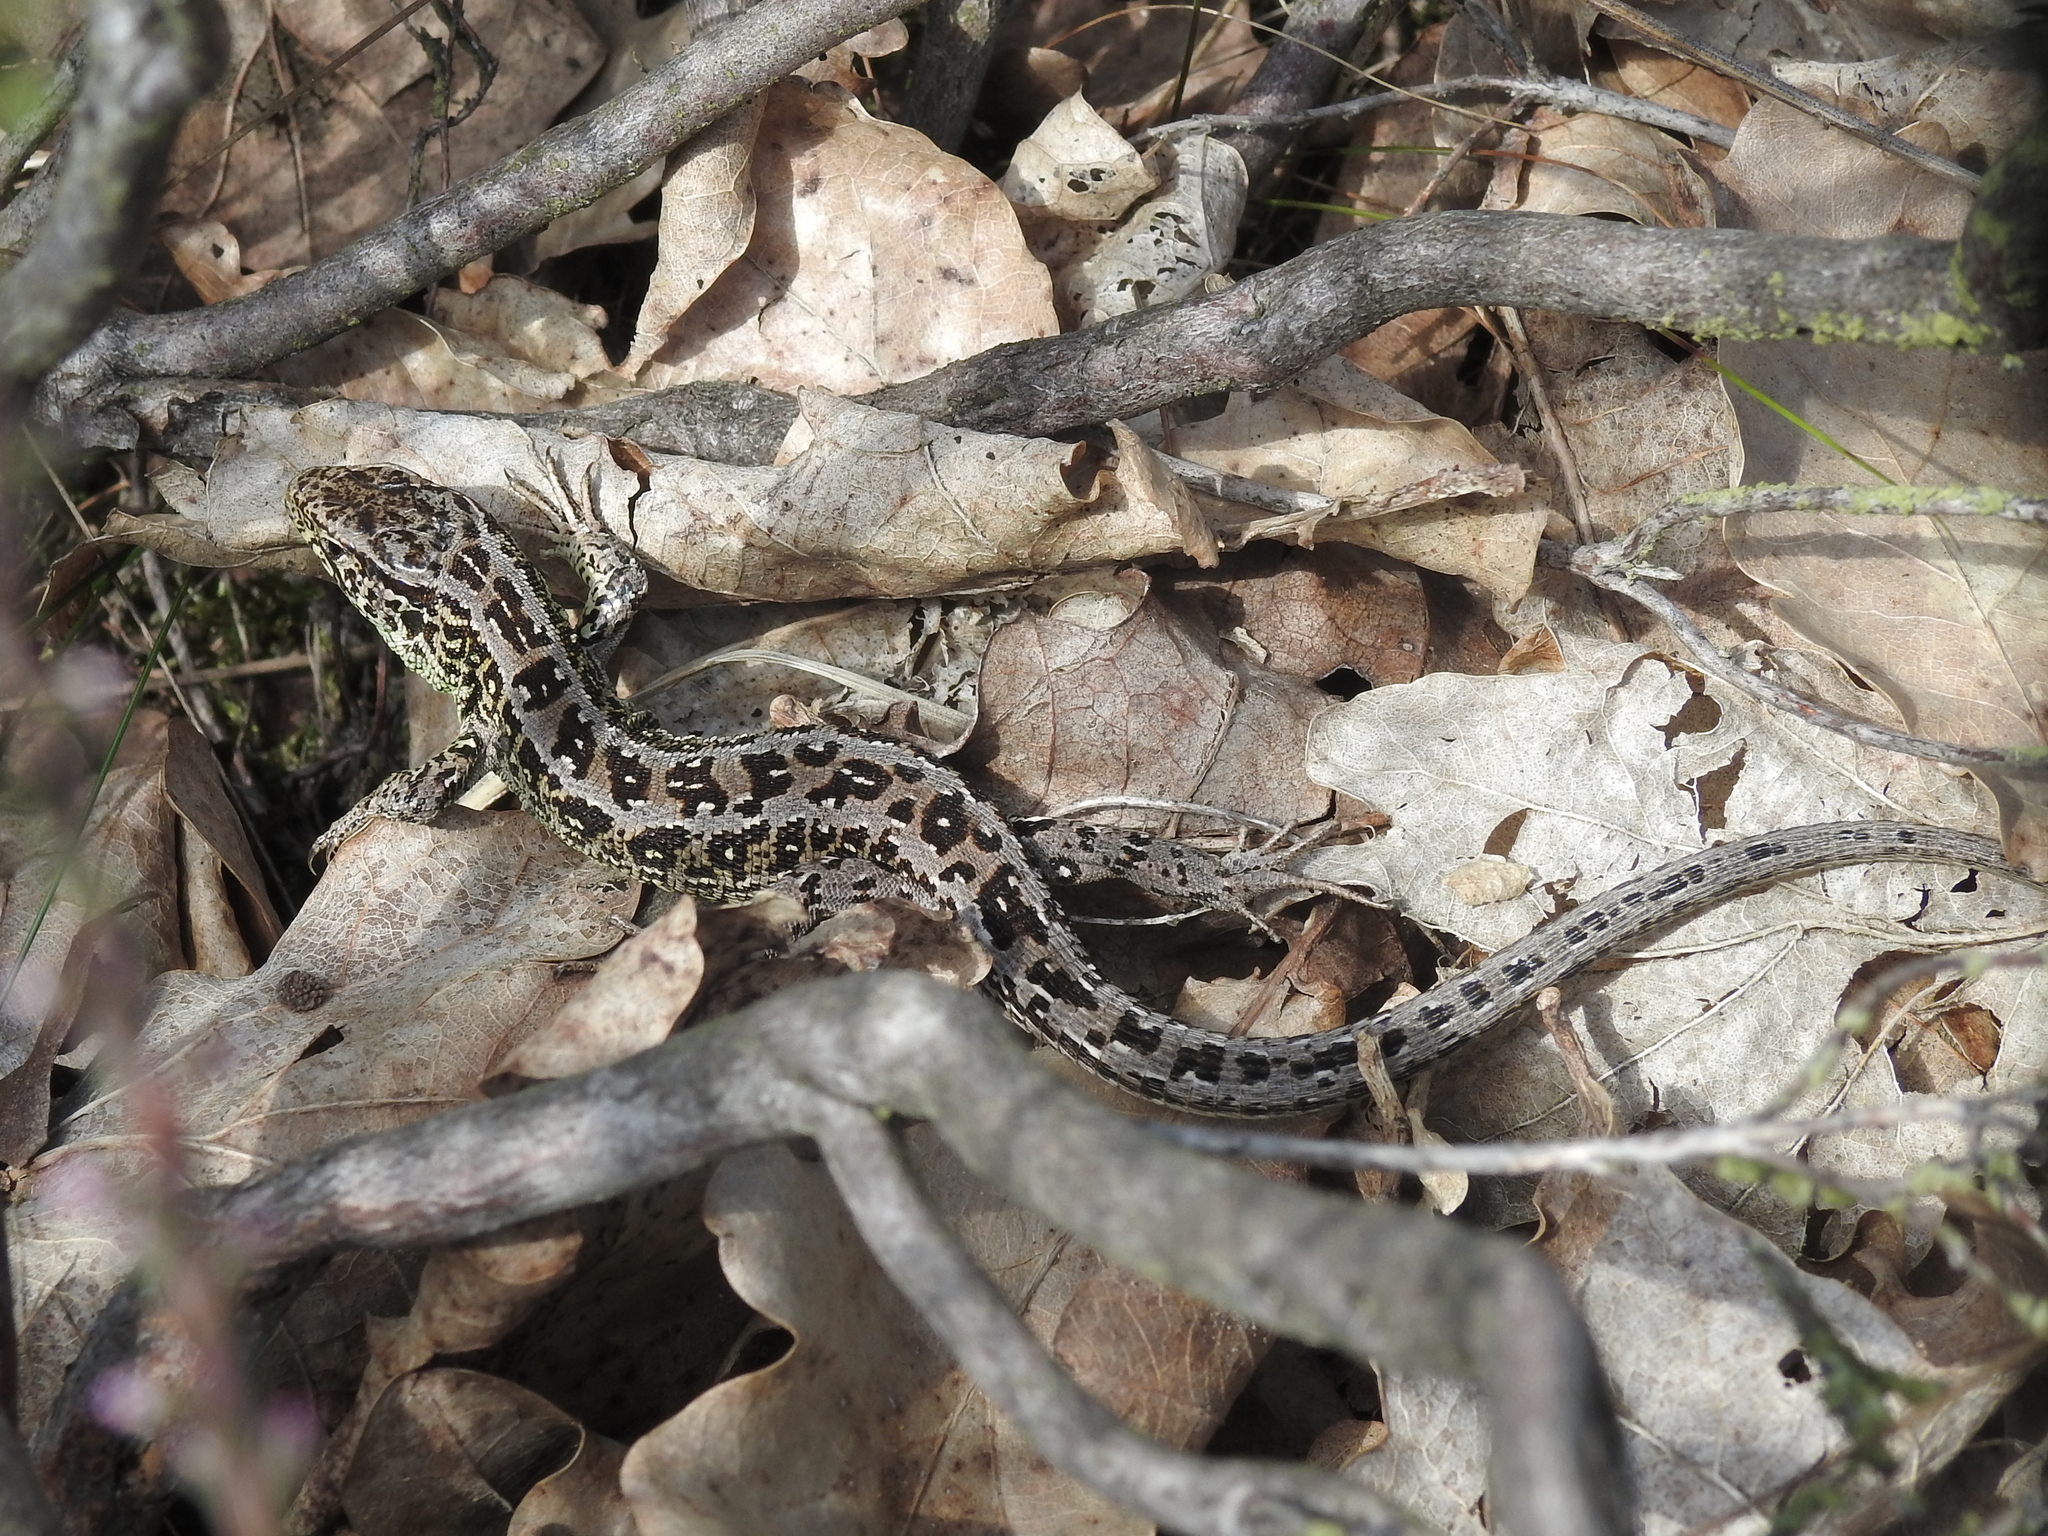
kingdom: Animalia
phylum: Chordata
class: Squamata
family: Lacertidae
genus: Lacerta
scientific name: Lacerta agilis
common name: Sand lizard
